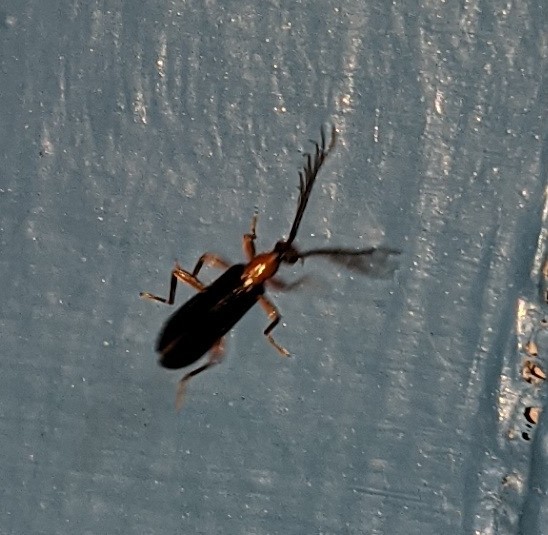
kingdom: Animalia
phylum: Arthropoda
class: Insecta
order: Coleoptera
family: Pyrochroidae
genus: Dendroides
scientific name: Dendroides canadensis
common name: Canada fire-colored beetle
